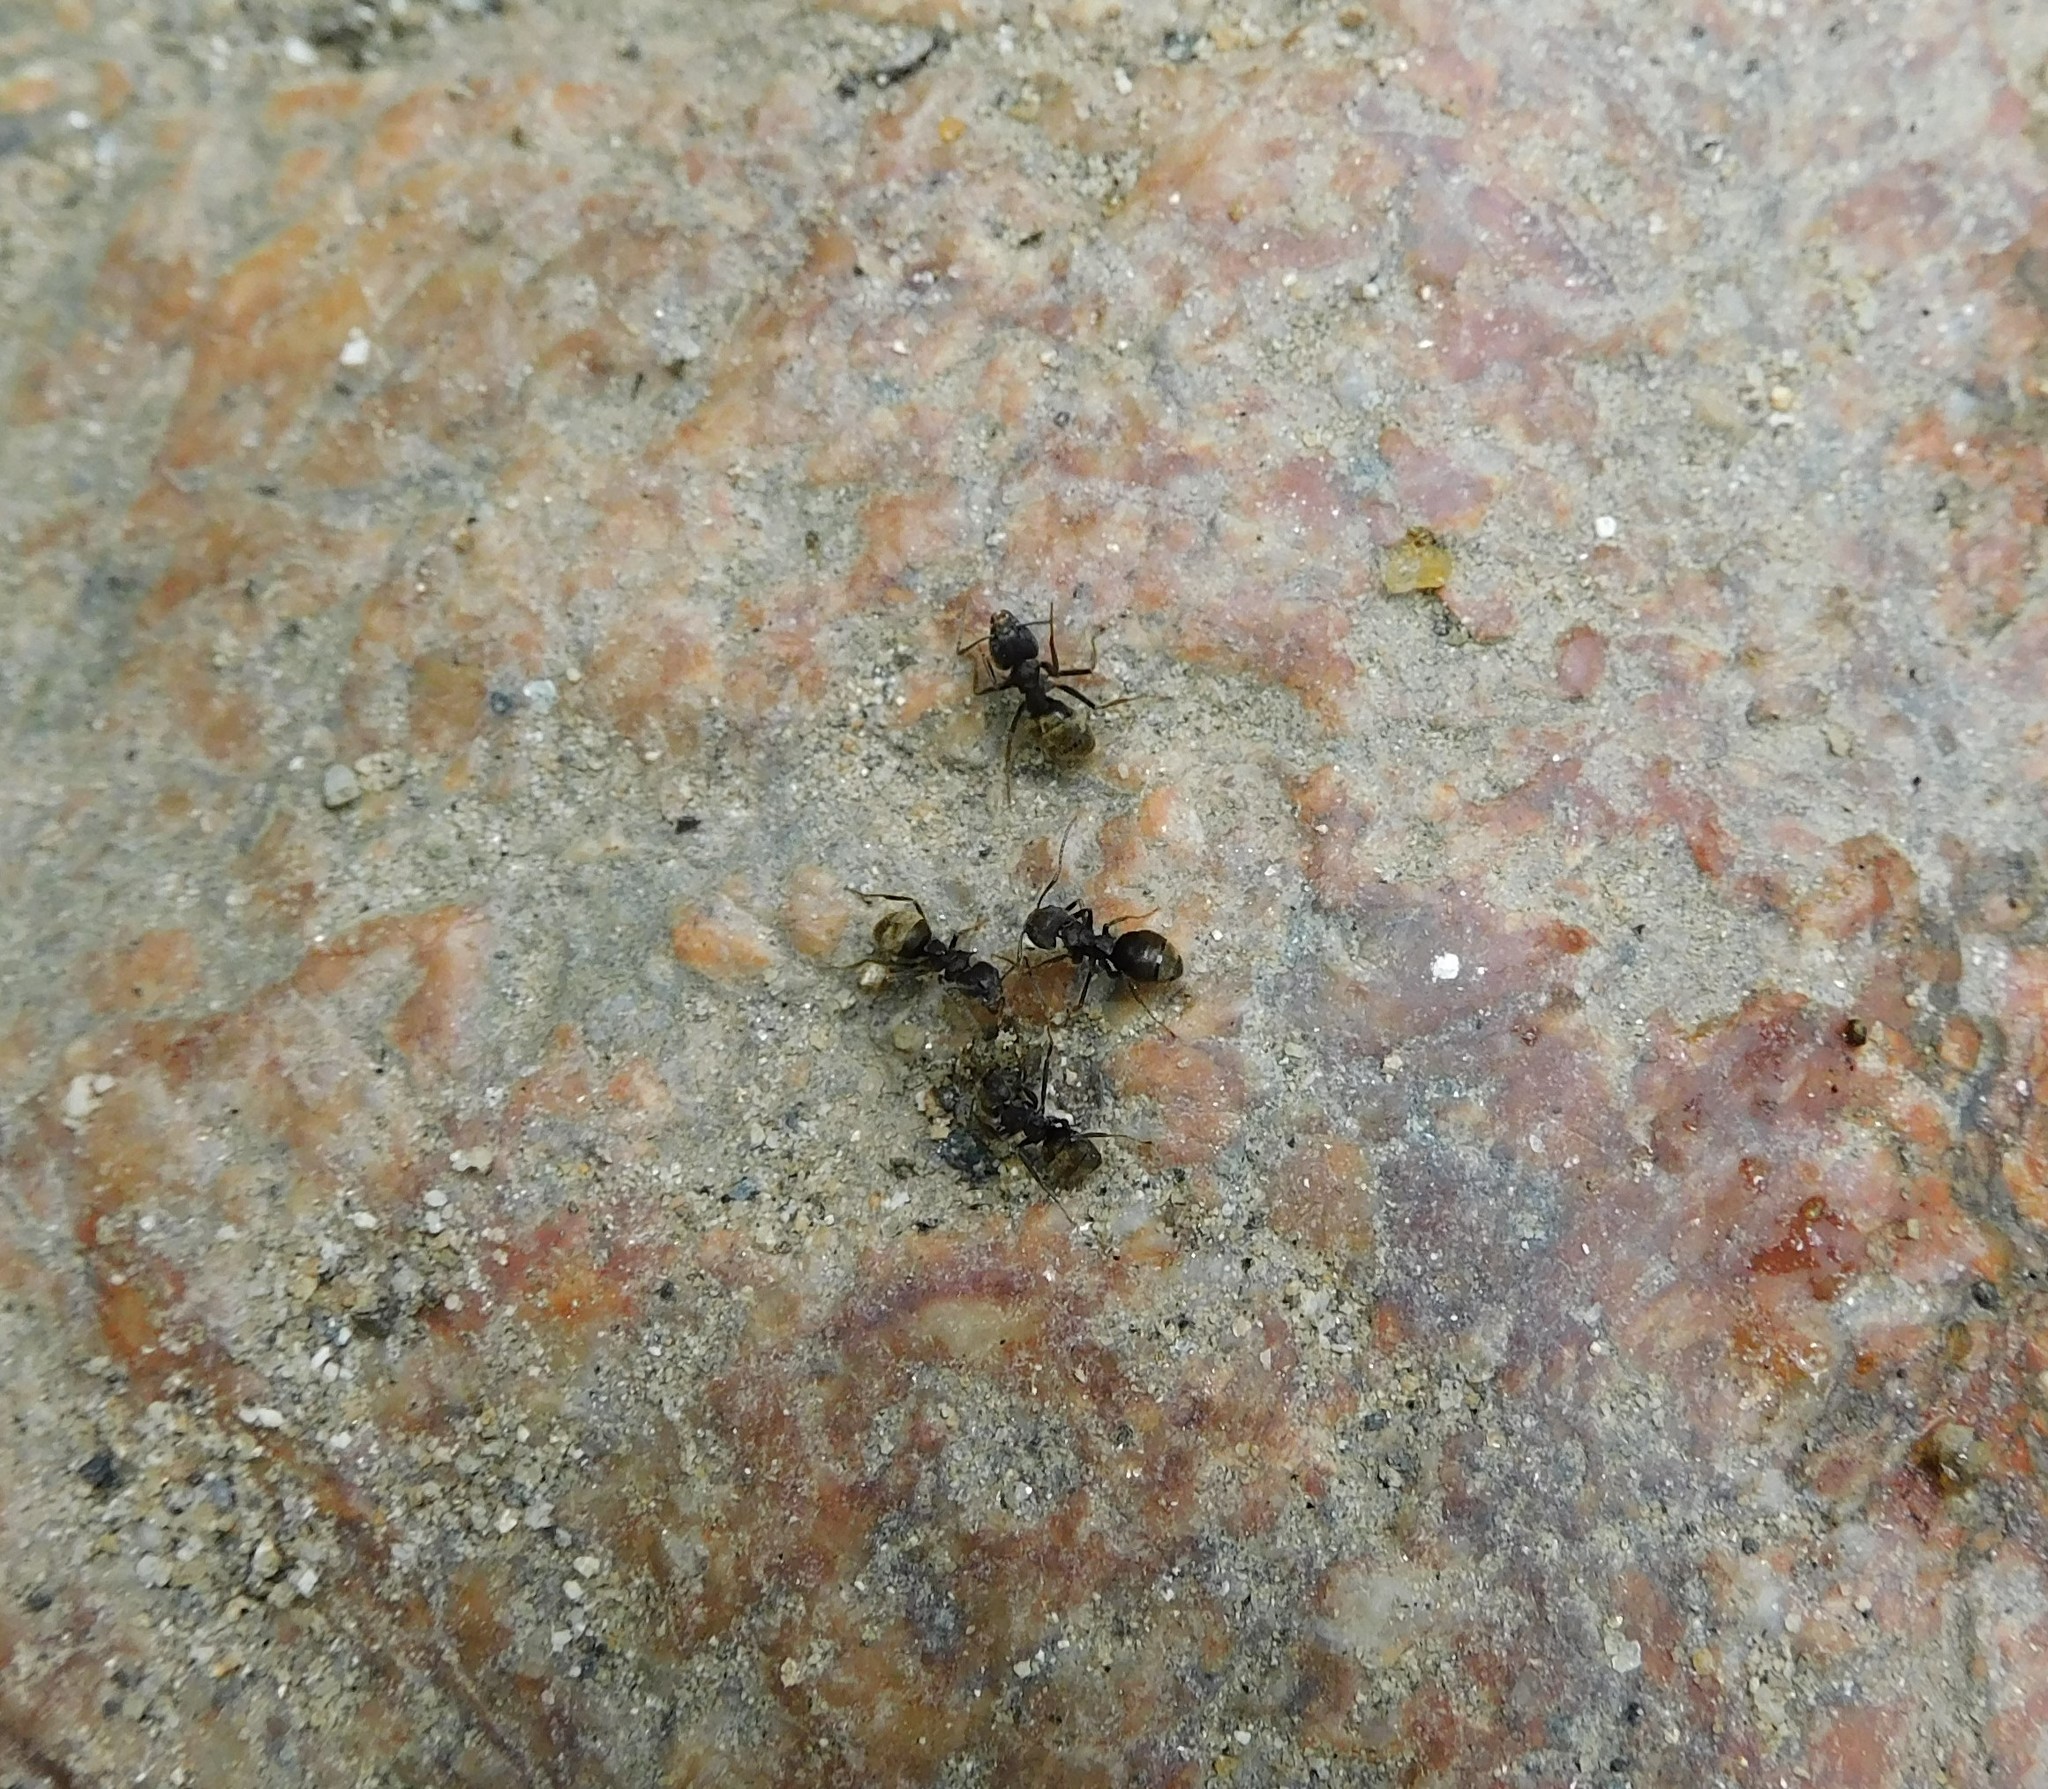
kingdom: Animalia
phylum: Arthropoda
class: Insecta
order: Hymenoptera
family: Formicidae
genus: Dolichoderus
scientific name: Dolichoderus bispinosus
